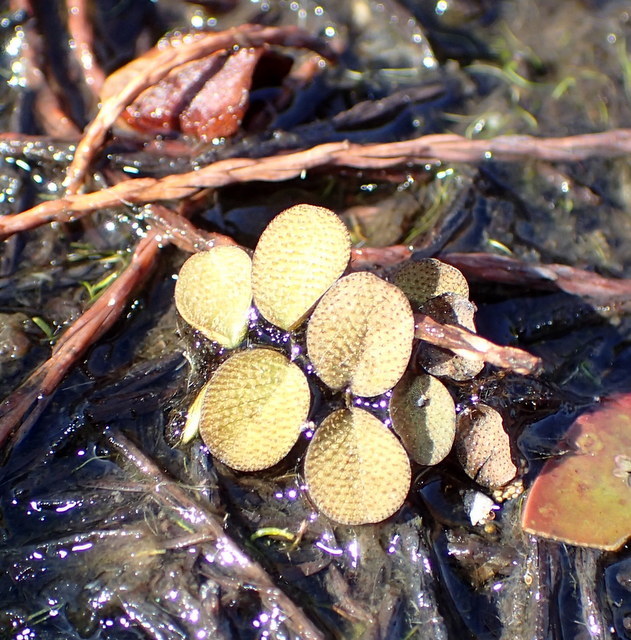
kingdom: Plantae
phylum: Tracheophyta
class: Polypodiopsida
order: Salviniales
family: Salviniaceae
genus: Salvinia
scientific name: Salvinia minima
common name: Water spangles
